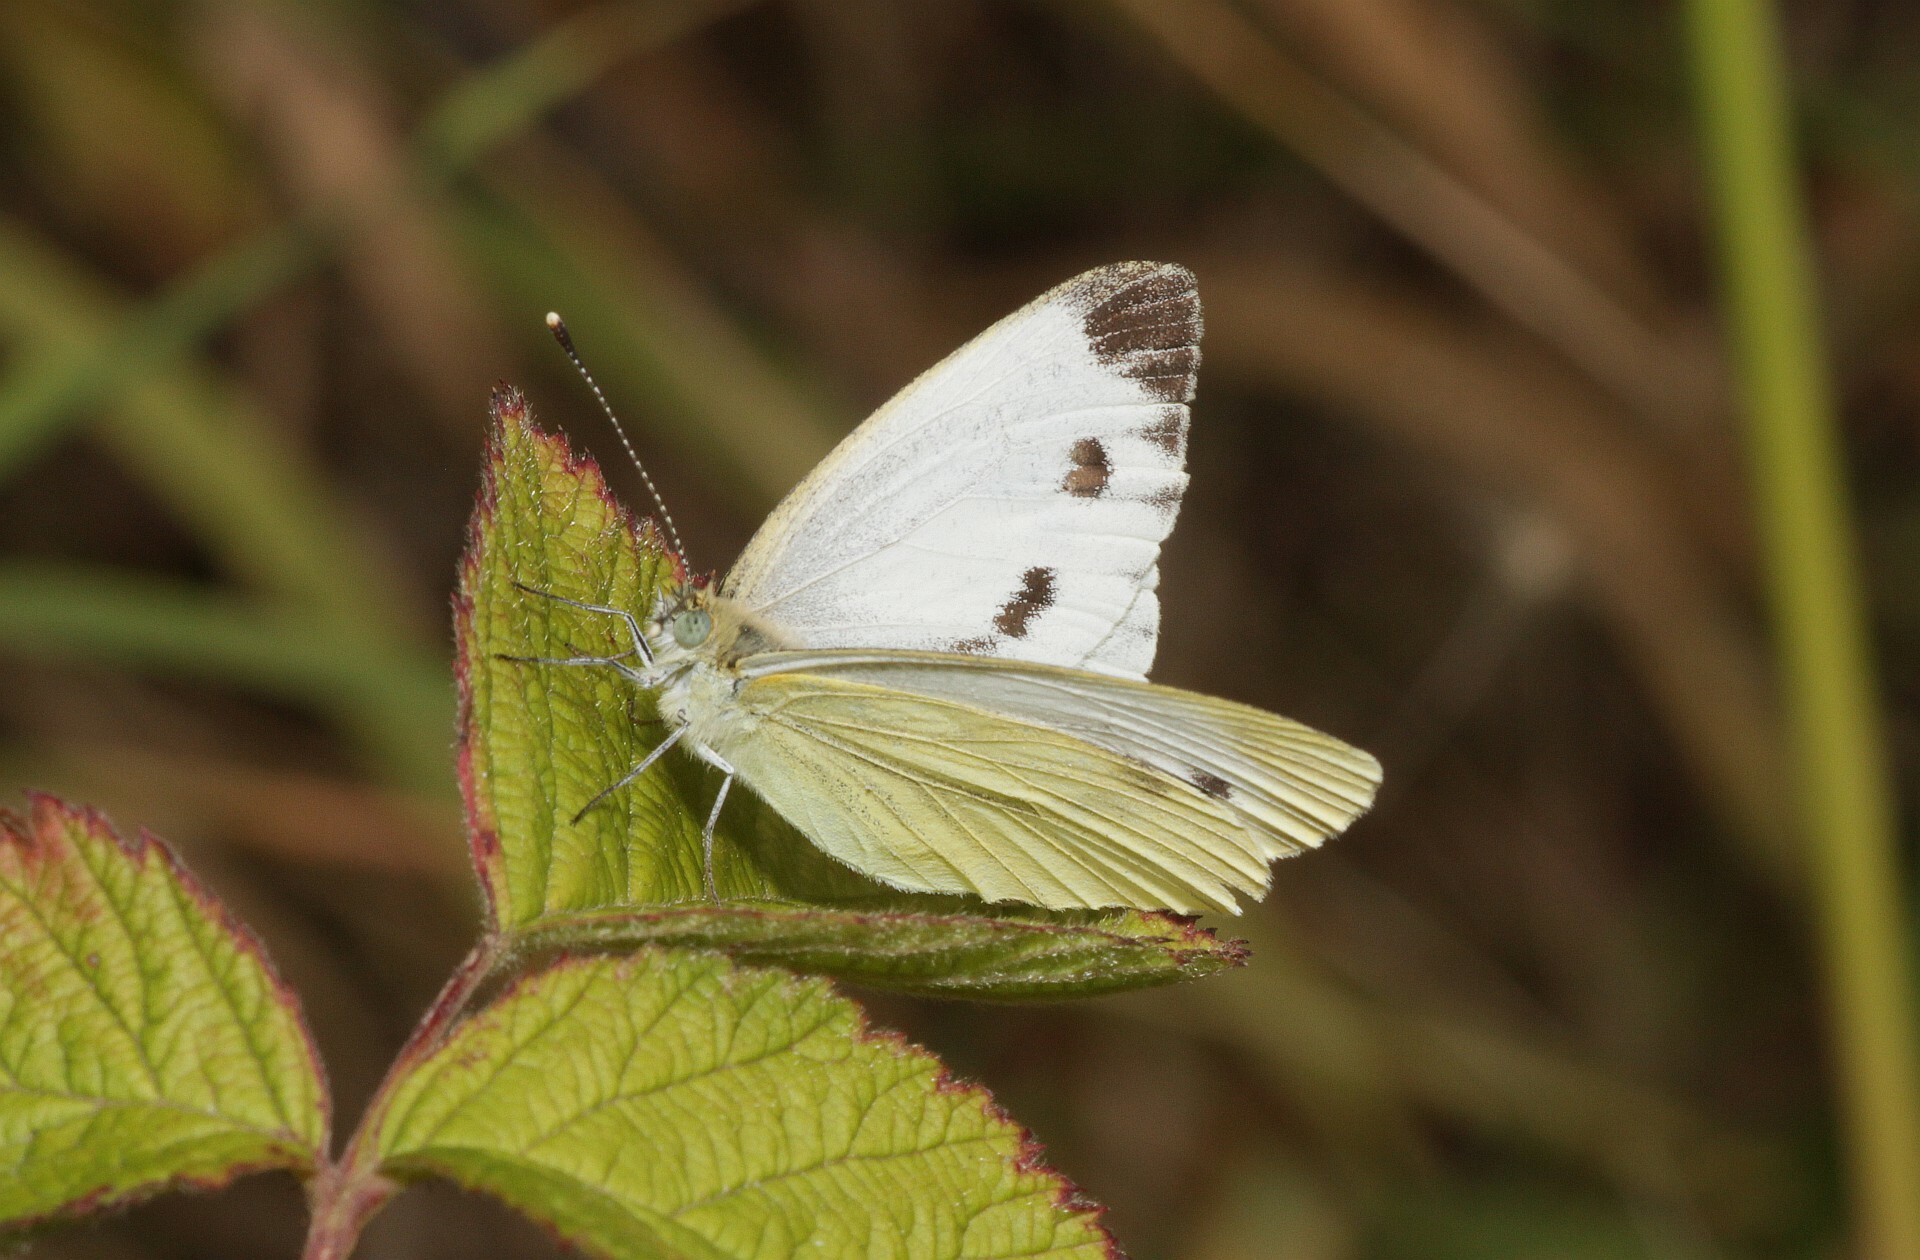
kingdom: Animalia
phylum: Arthropoda
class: Insecta
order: Lepidoptera
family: Pieridae
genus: Pieris
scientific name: Pieris napi
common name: Green-veined white
